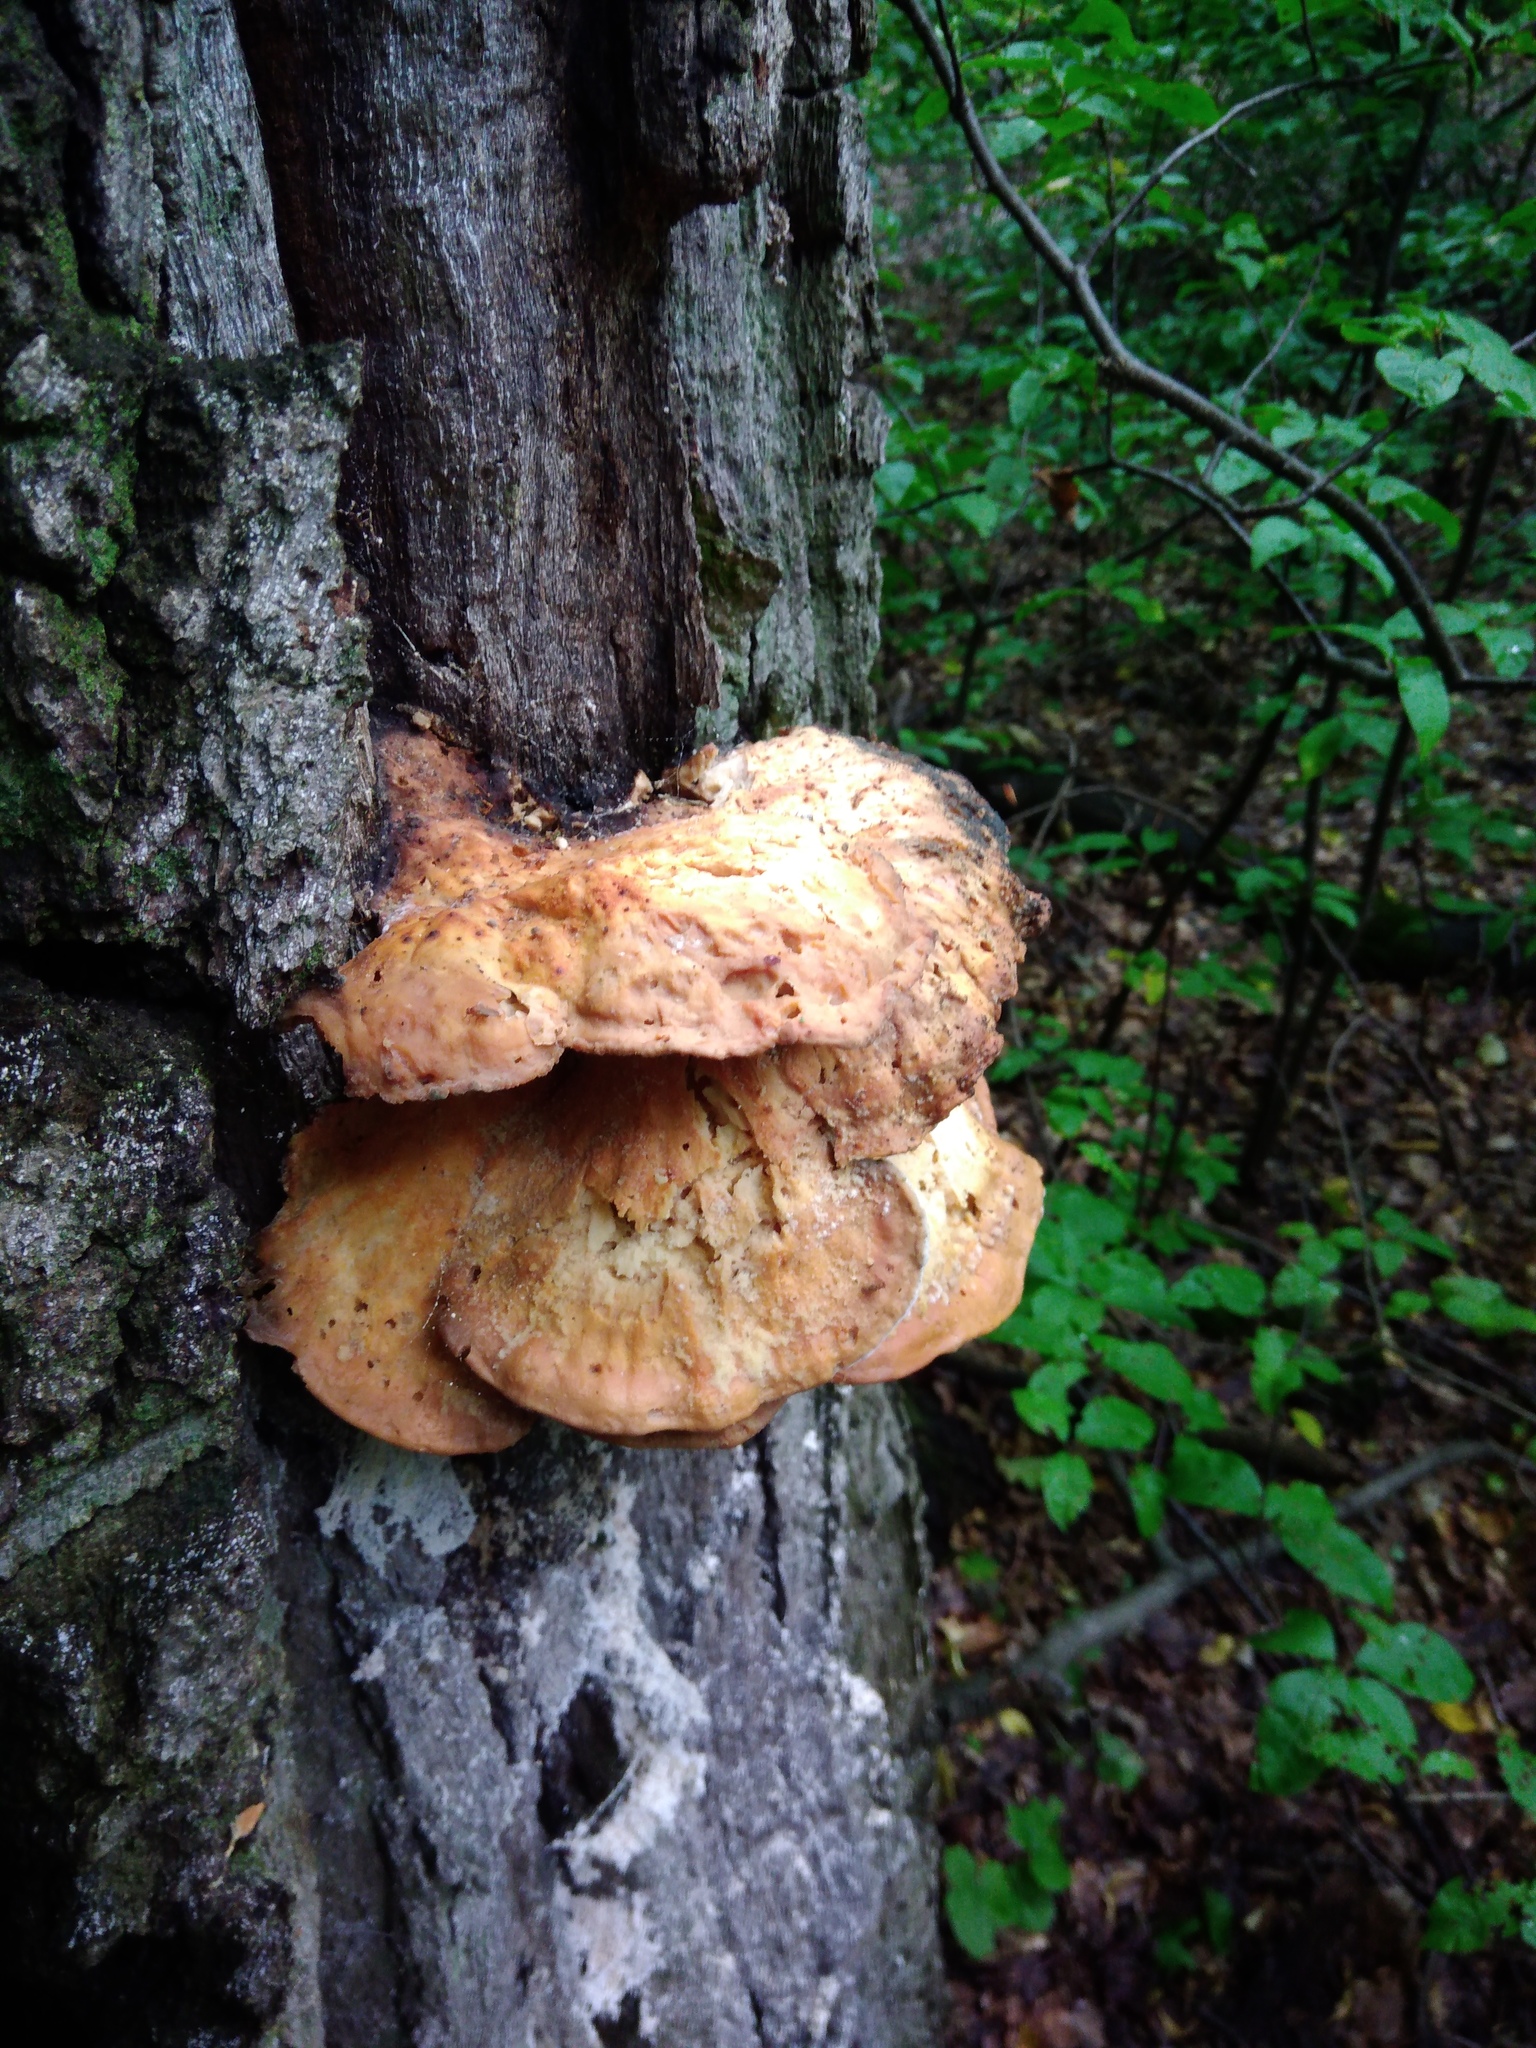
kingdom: Fungi
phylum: Basidiomycota
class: Agaricomycetes
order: Polyporales
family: Laetiporaceae
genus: Laetiporus
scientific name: Laetiporus sulphureus
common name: Chicken of the woods
